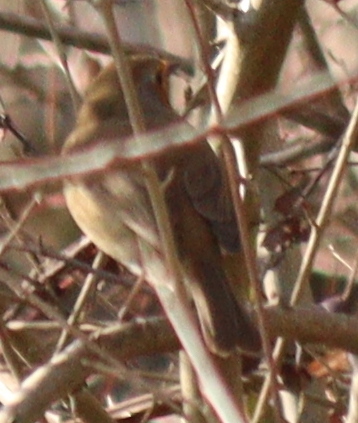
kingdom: Animalia
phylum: Chordata
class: Aves
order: Passeriformes
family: Muscicapidae
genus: Erithacus
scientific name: Erithacus rubecula
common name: European robin
